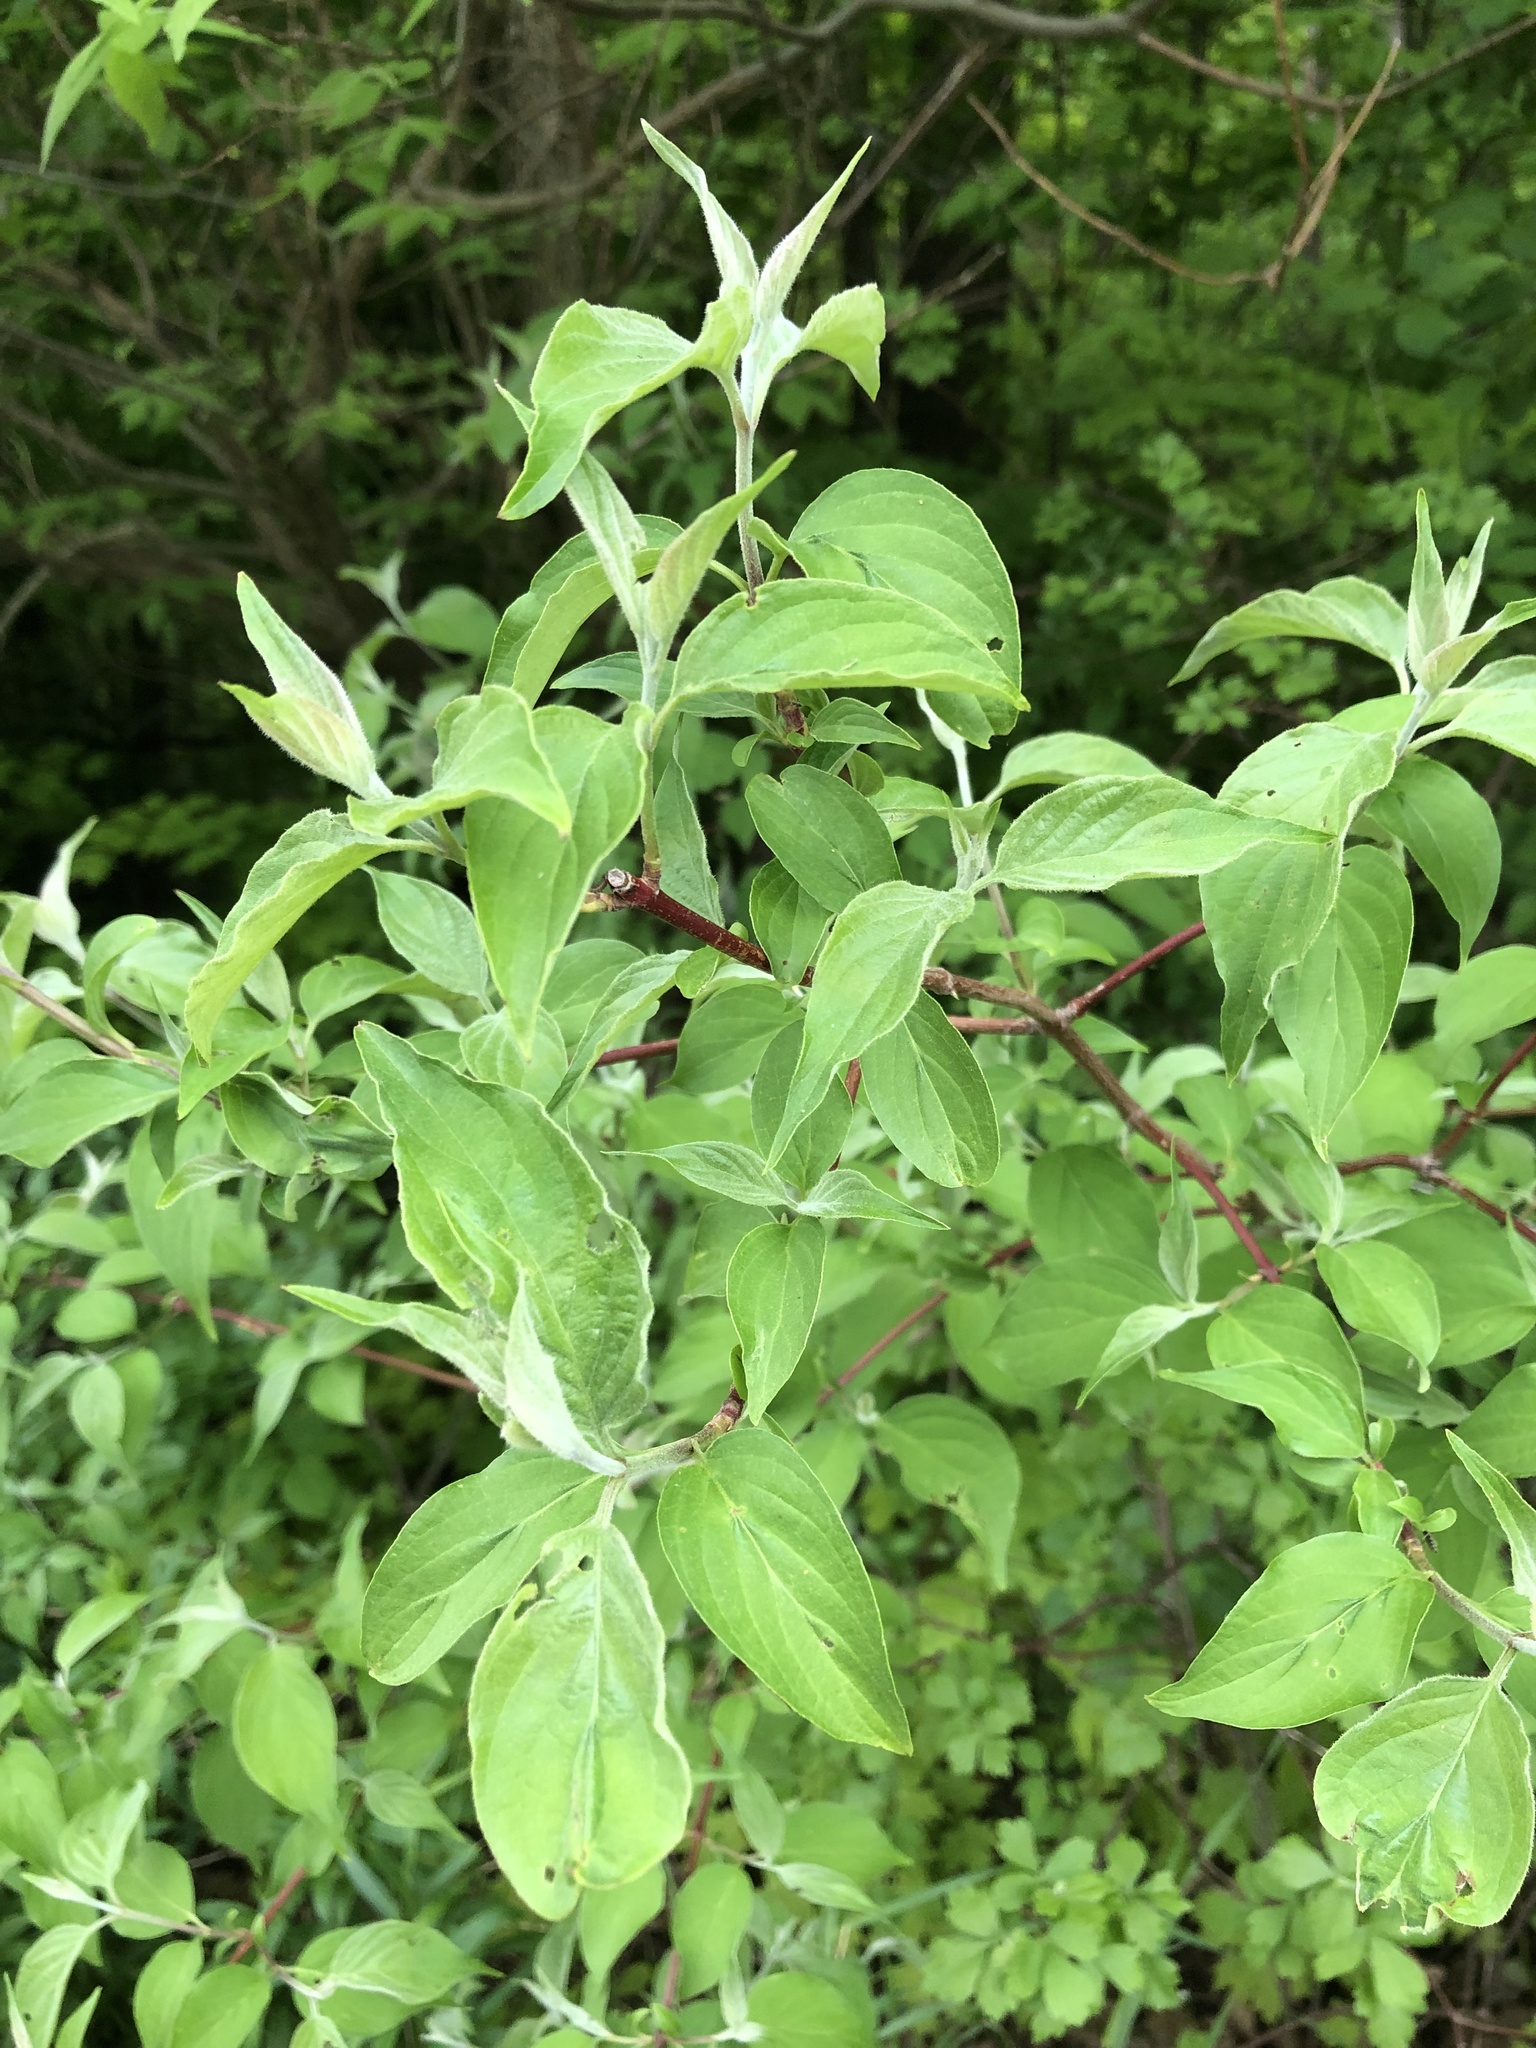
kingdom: Plantae
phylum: Tracheophyta
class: Magnoliopsida
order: Cornales
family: Cornaceae
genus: Cornus
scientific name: Cornus obliqua
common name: Pale dogwood
